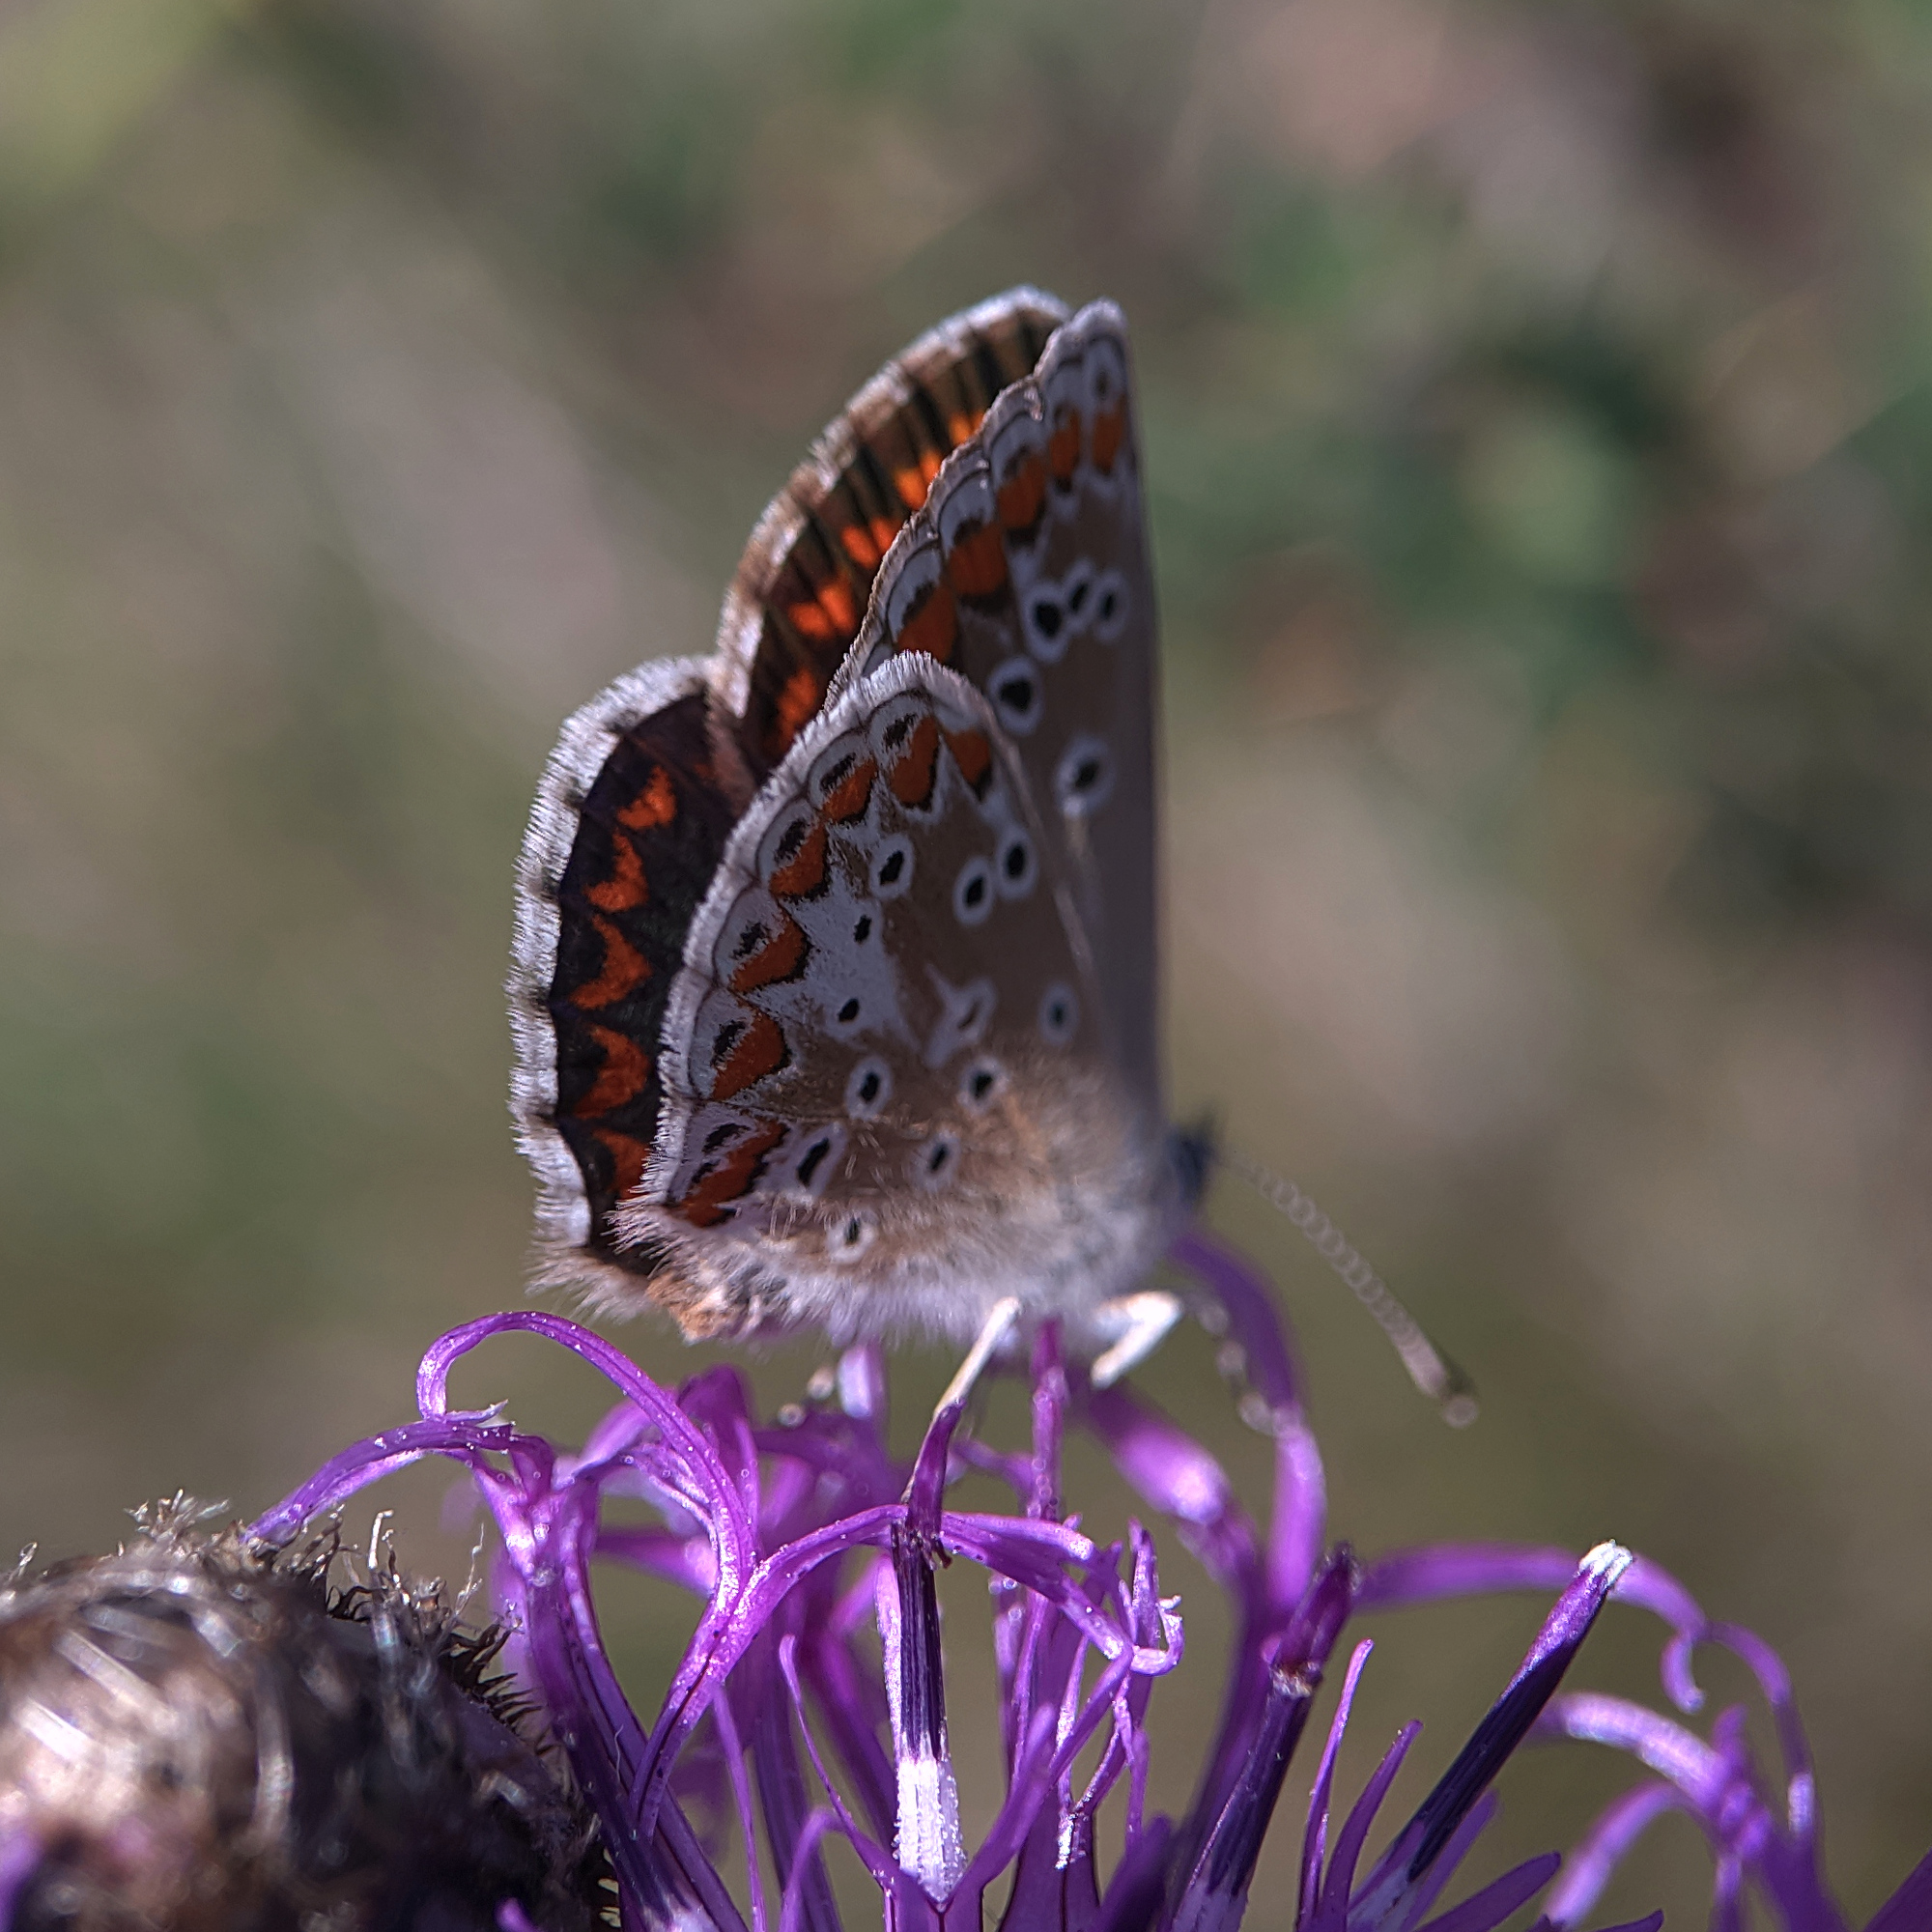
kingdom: Animalia
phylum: Arthropoda
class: Insecta
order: Lepidoptera
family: Lycaenidae
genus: Aricia
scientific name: Aricia agestis
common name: Brown argus
